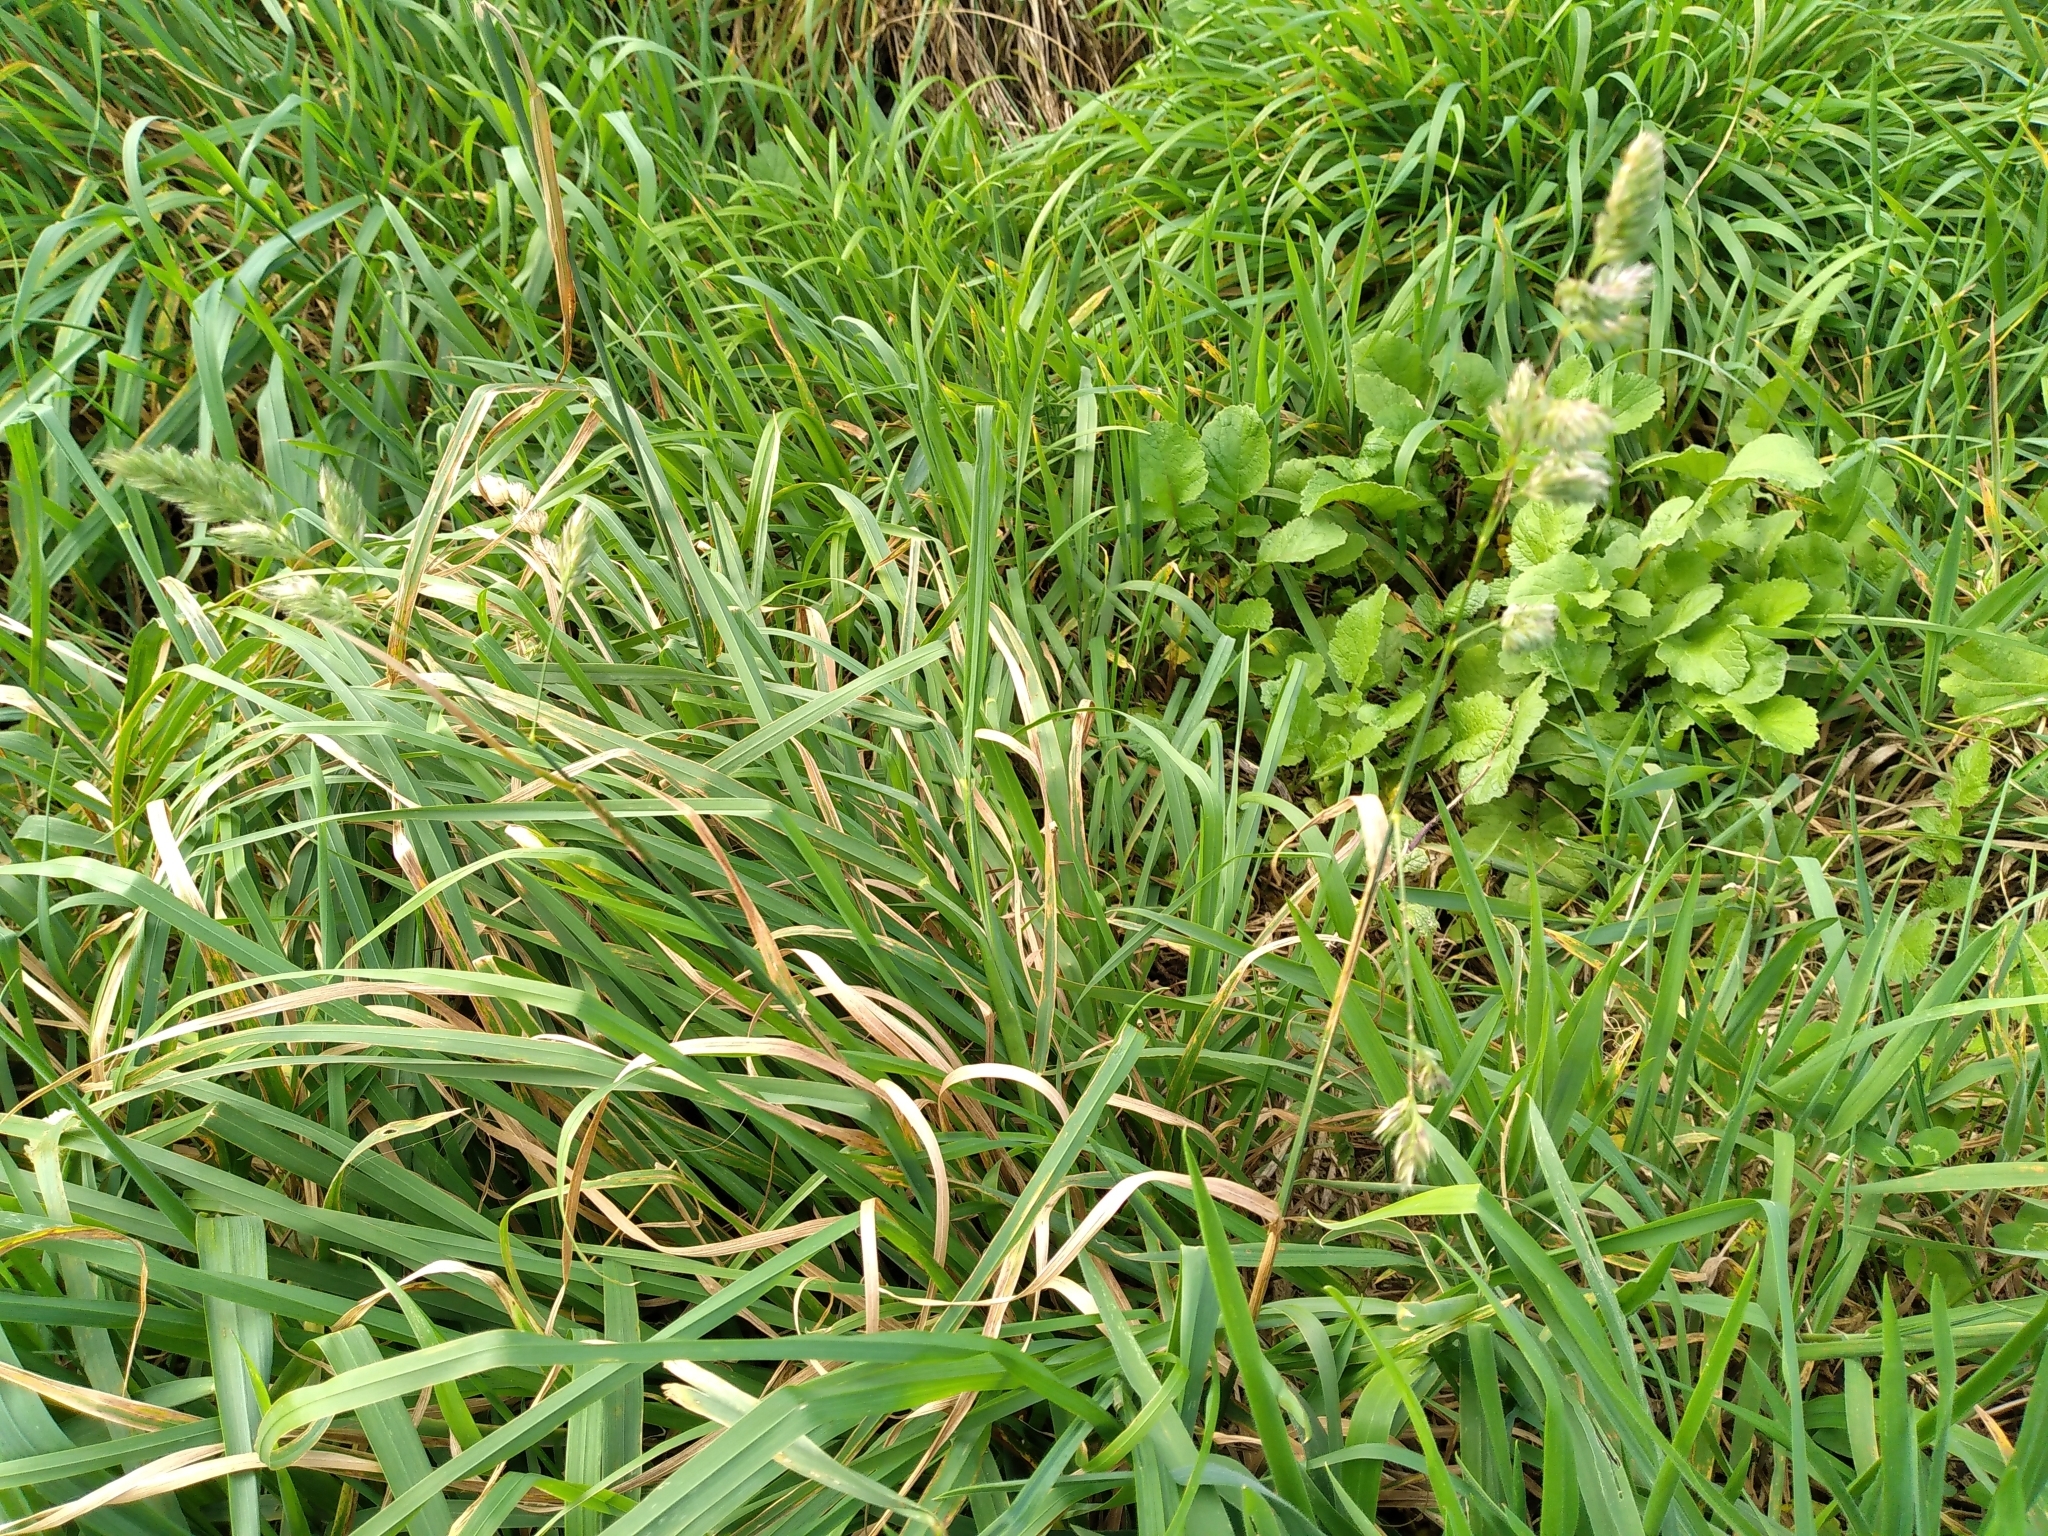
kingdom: Plantae
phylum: Tracheophyta
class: Liliopsida
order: Poales
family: Poaceae
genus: Dactylis
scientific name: Dactylis glomerata
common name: Orchardgrass
